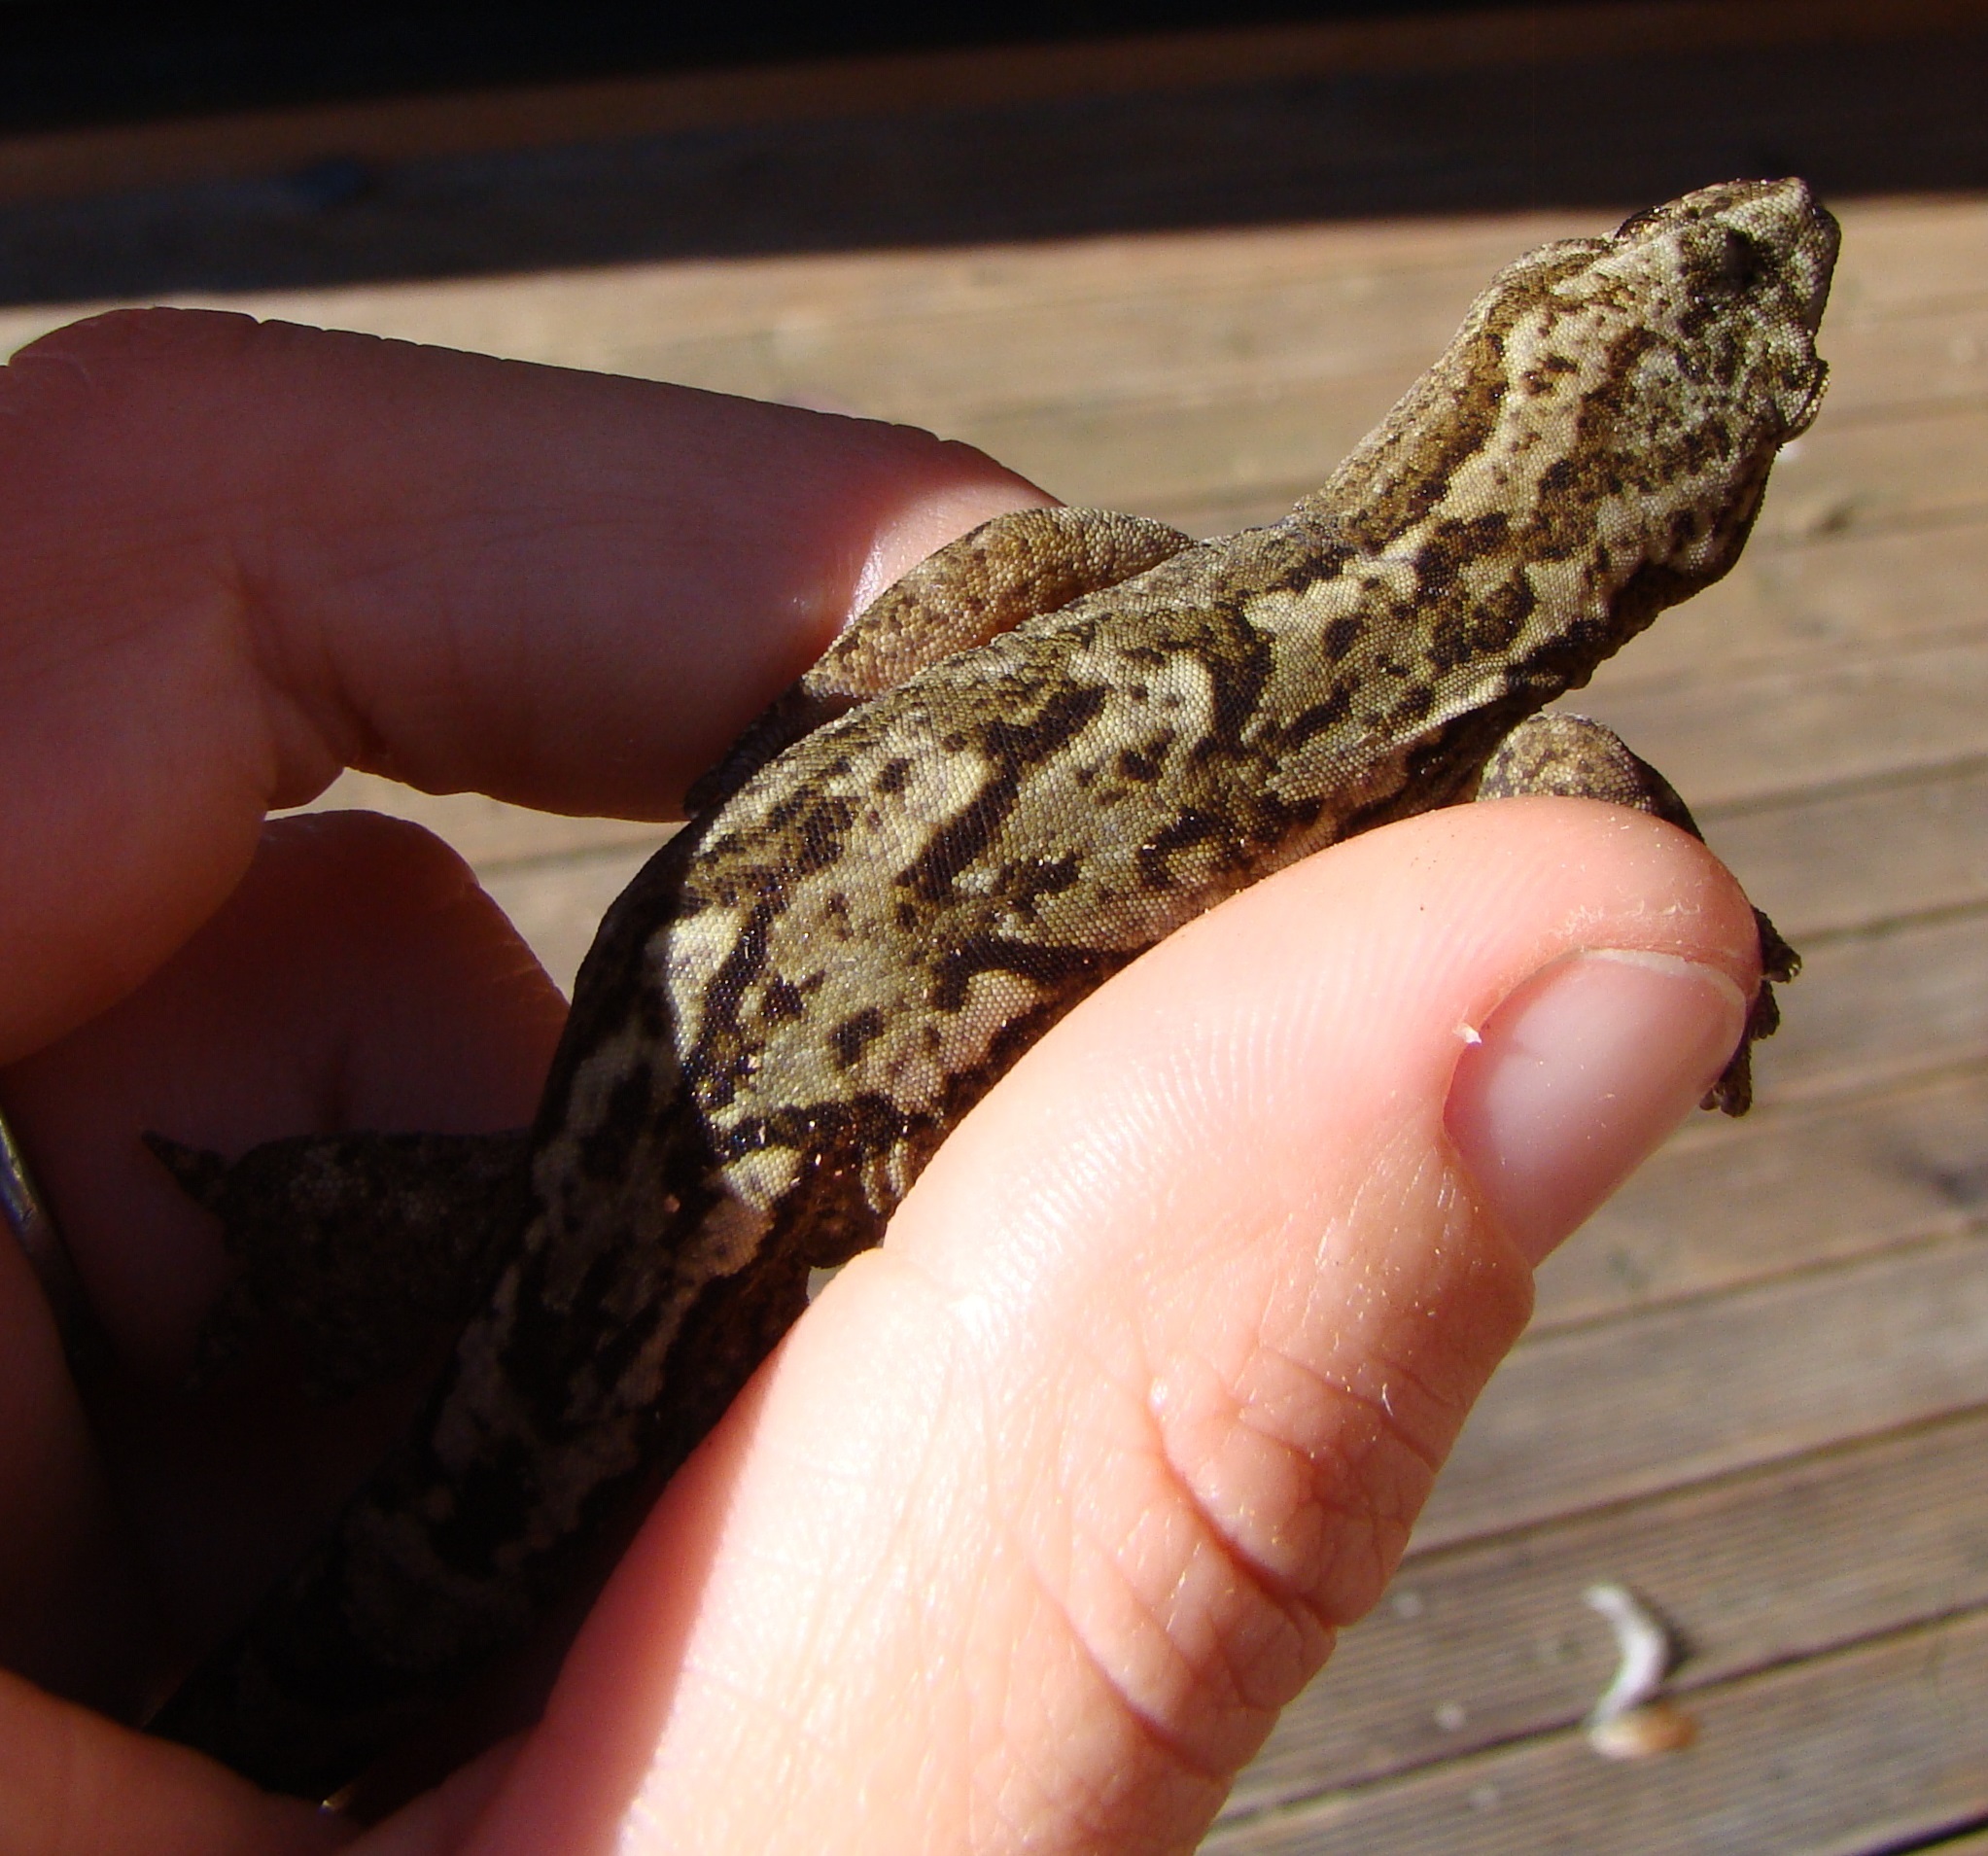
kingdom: Animalia
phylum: Chordata
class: Squamata
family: Diplodactylidae
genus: Woodworthia
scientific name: Woodworthia maculata
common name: Raukawa gecko
